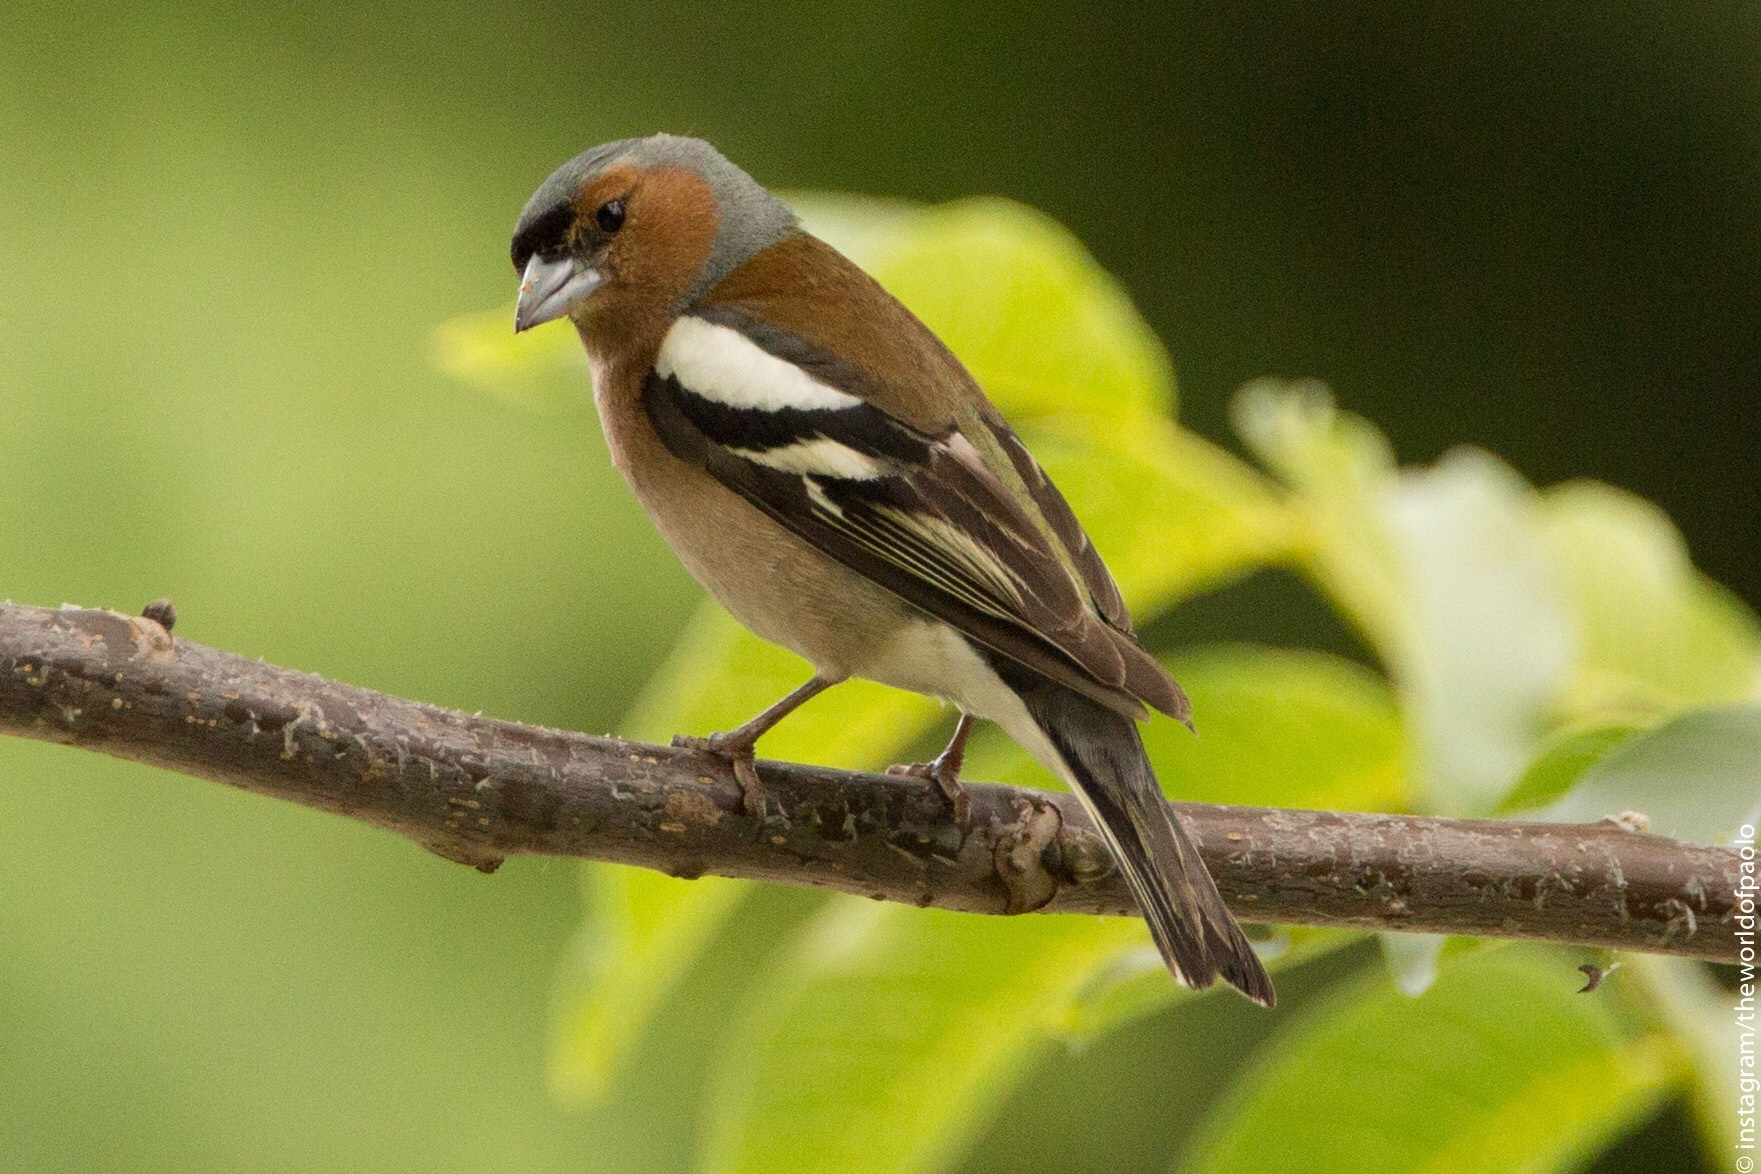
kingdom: Animalia
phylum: Chordata
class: Aves
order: Passeriformes
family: Fringillidae
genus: Fringilla
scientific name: Fringilla coelebs
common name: Common chaffinch
